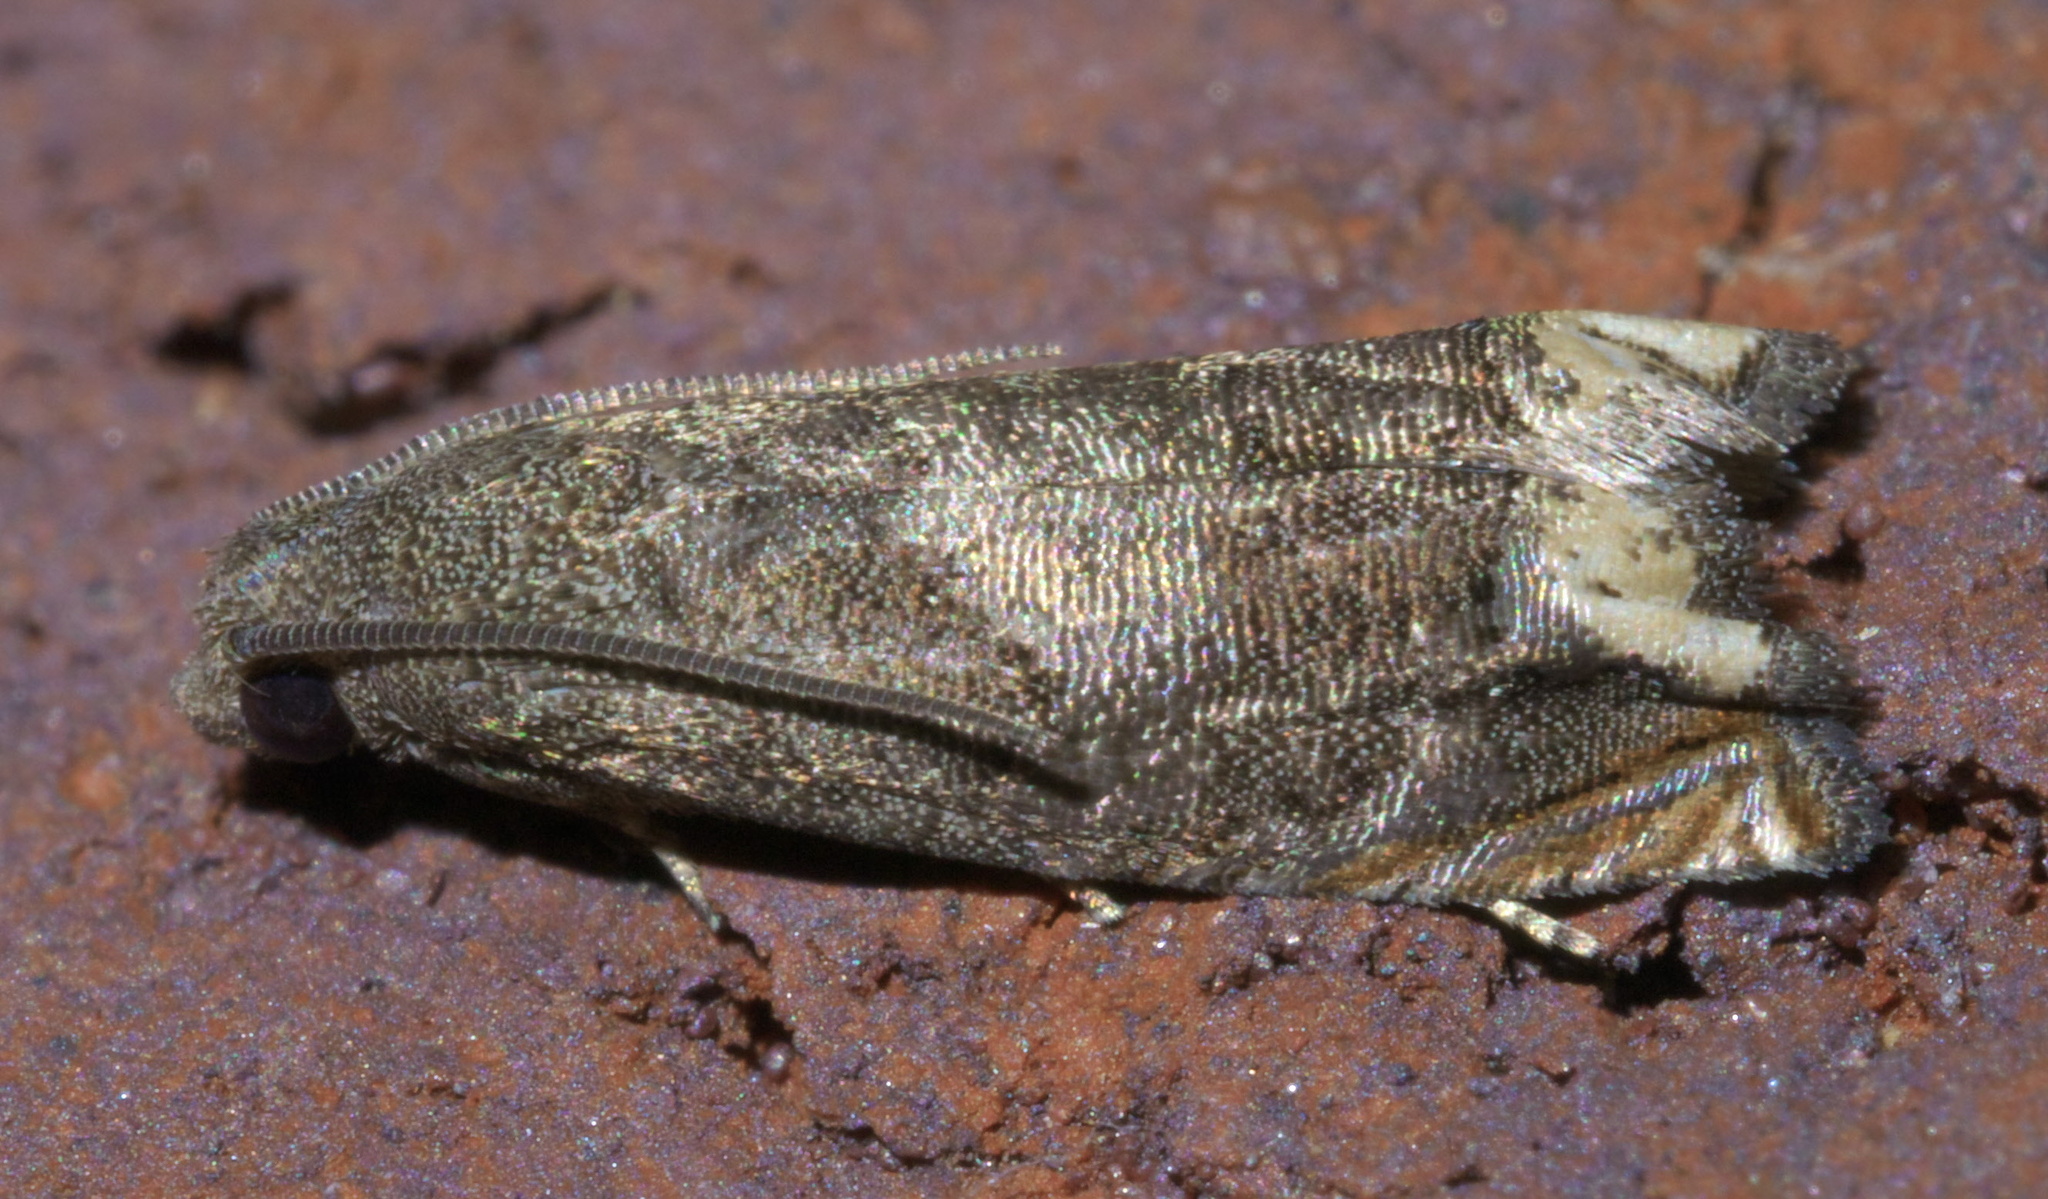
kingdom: Animalia
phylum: Arthropoda
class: Insecta
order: Lepidoptera
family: Tortricidae
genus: Epiblema
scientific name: Epiblema strenuana
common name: Ragweed borer moth
